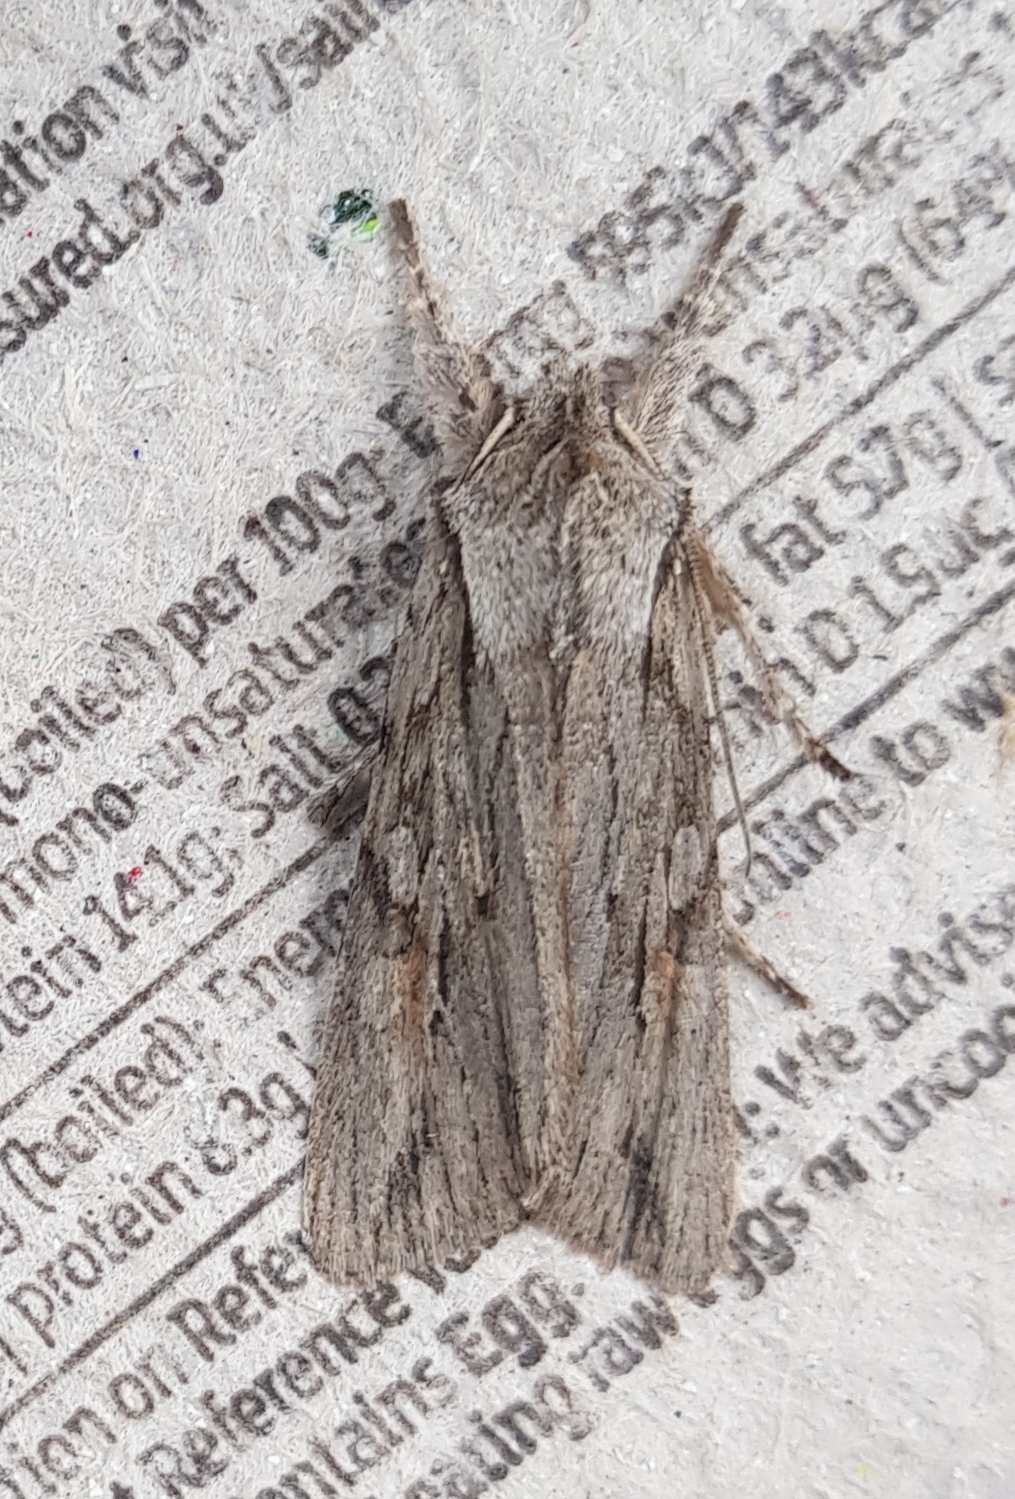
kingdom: Animalia
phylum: Arthropoda
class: Insecta
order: Lepidoptera
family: Noctuidae
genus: Lithophane
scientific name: Lithophane leautieri
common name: Blair's shoulder-knot
